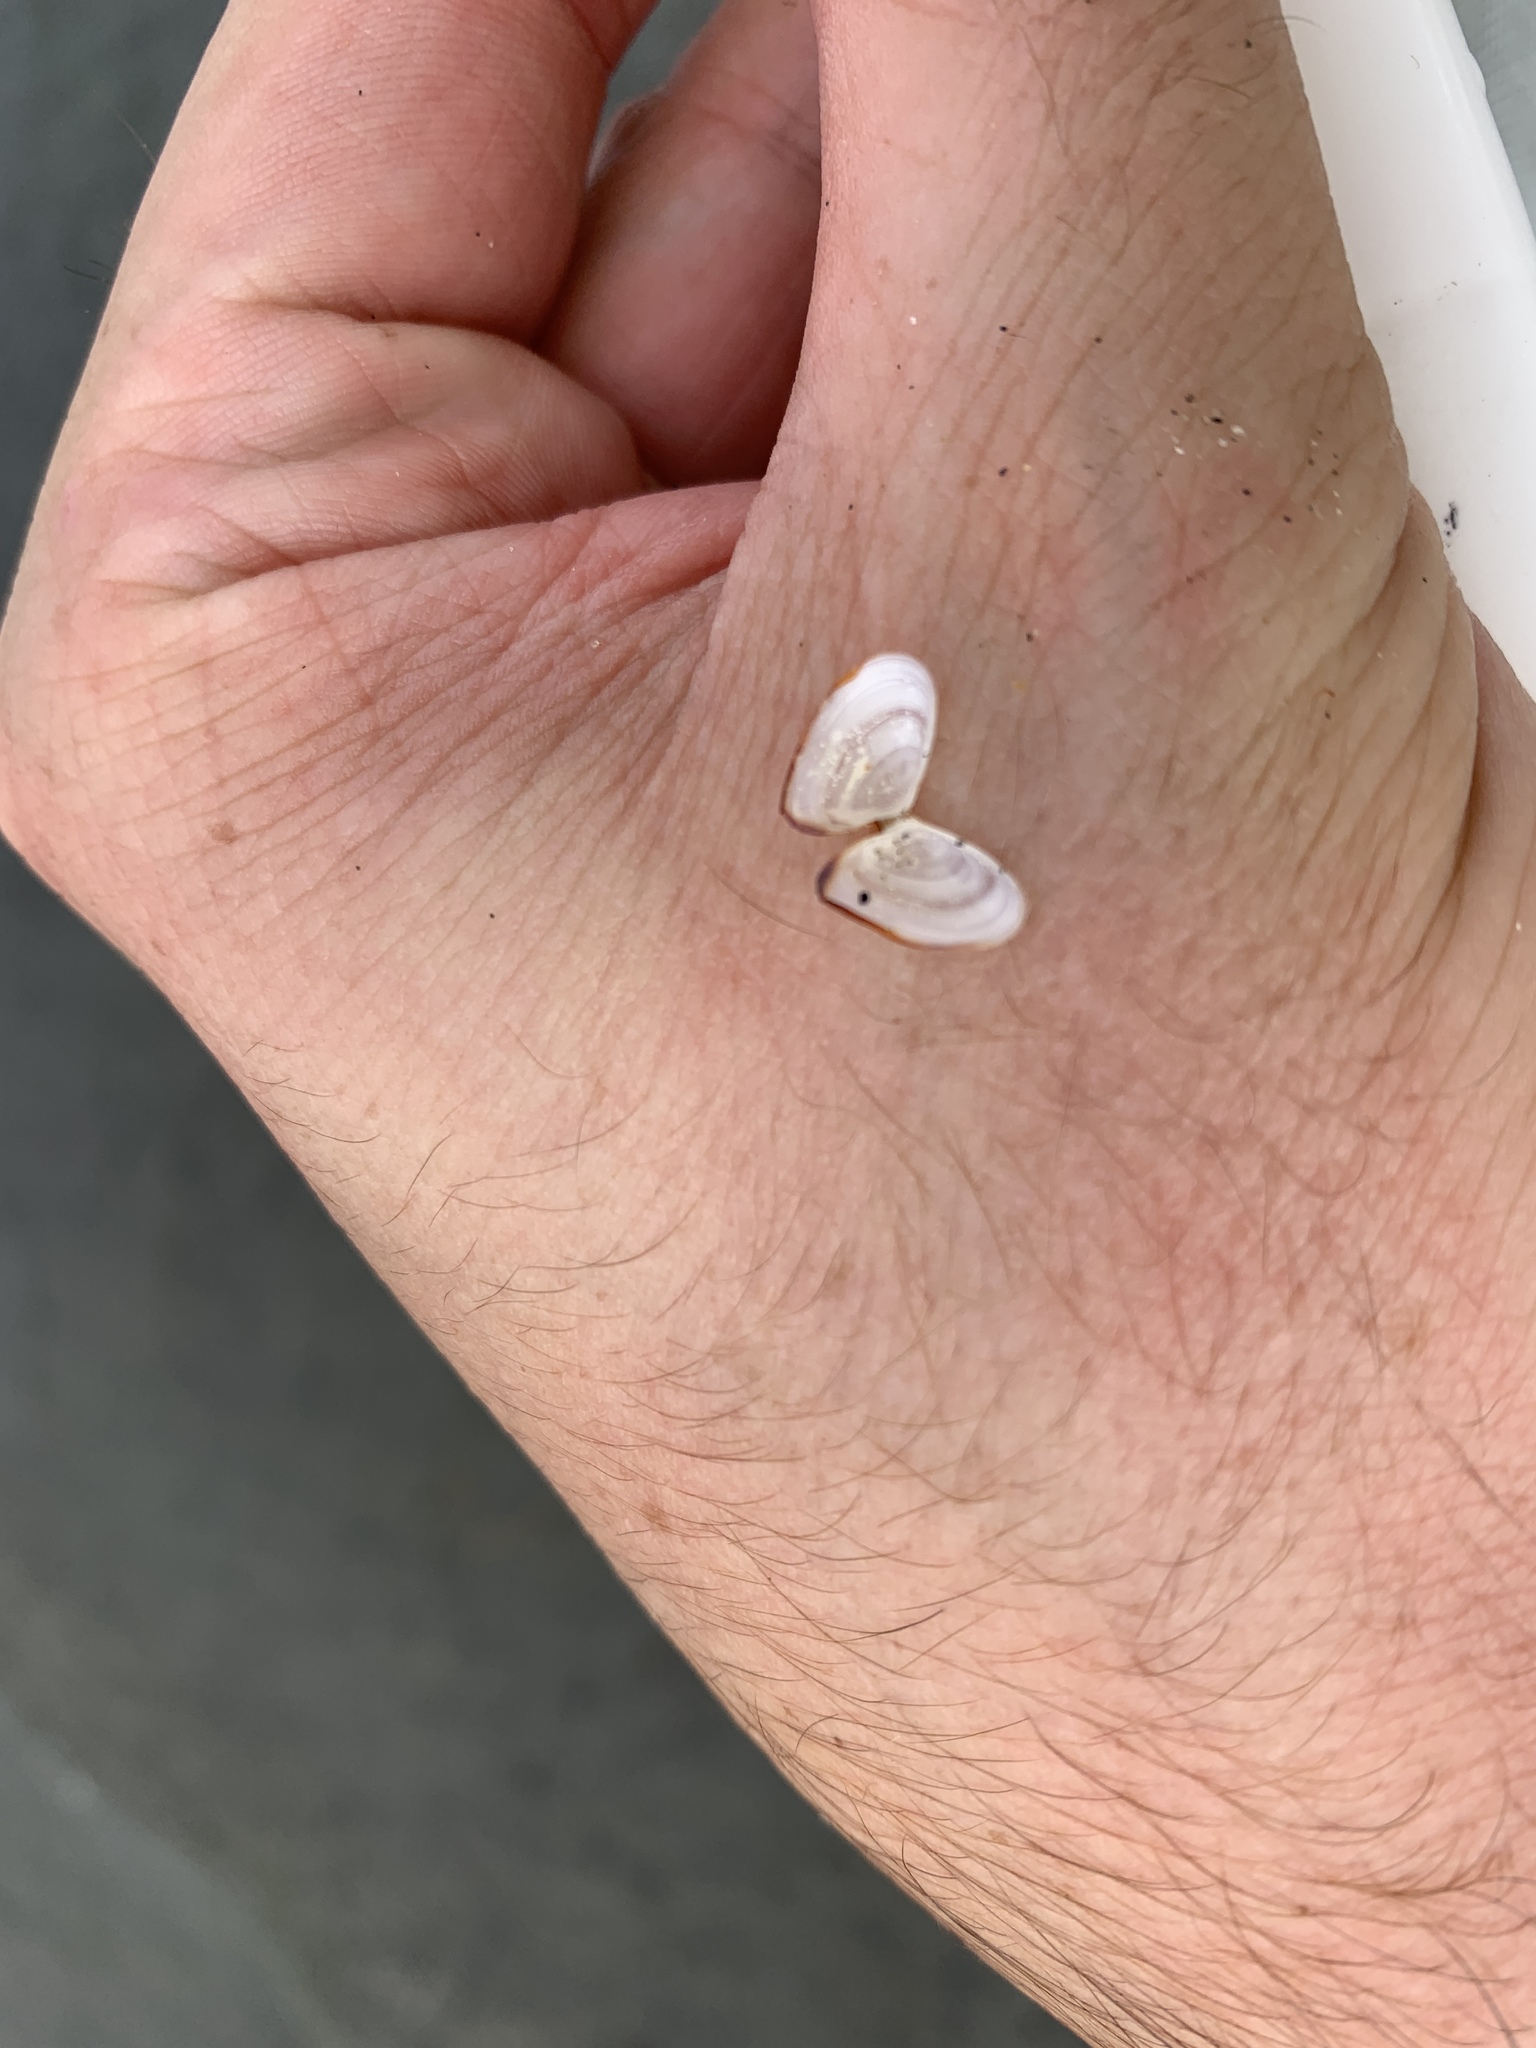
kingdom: Animalia
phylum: Mollusca
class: Bivalvia
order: Cardiida
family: Tellinidae
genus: Ameritella
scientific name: Ameritella agilis
